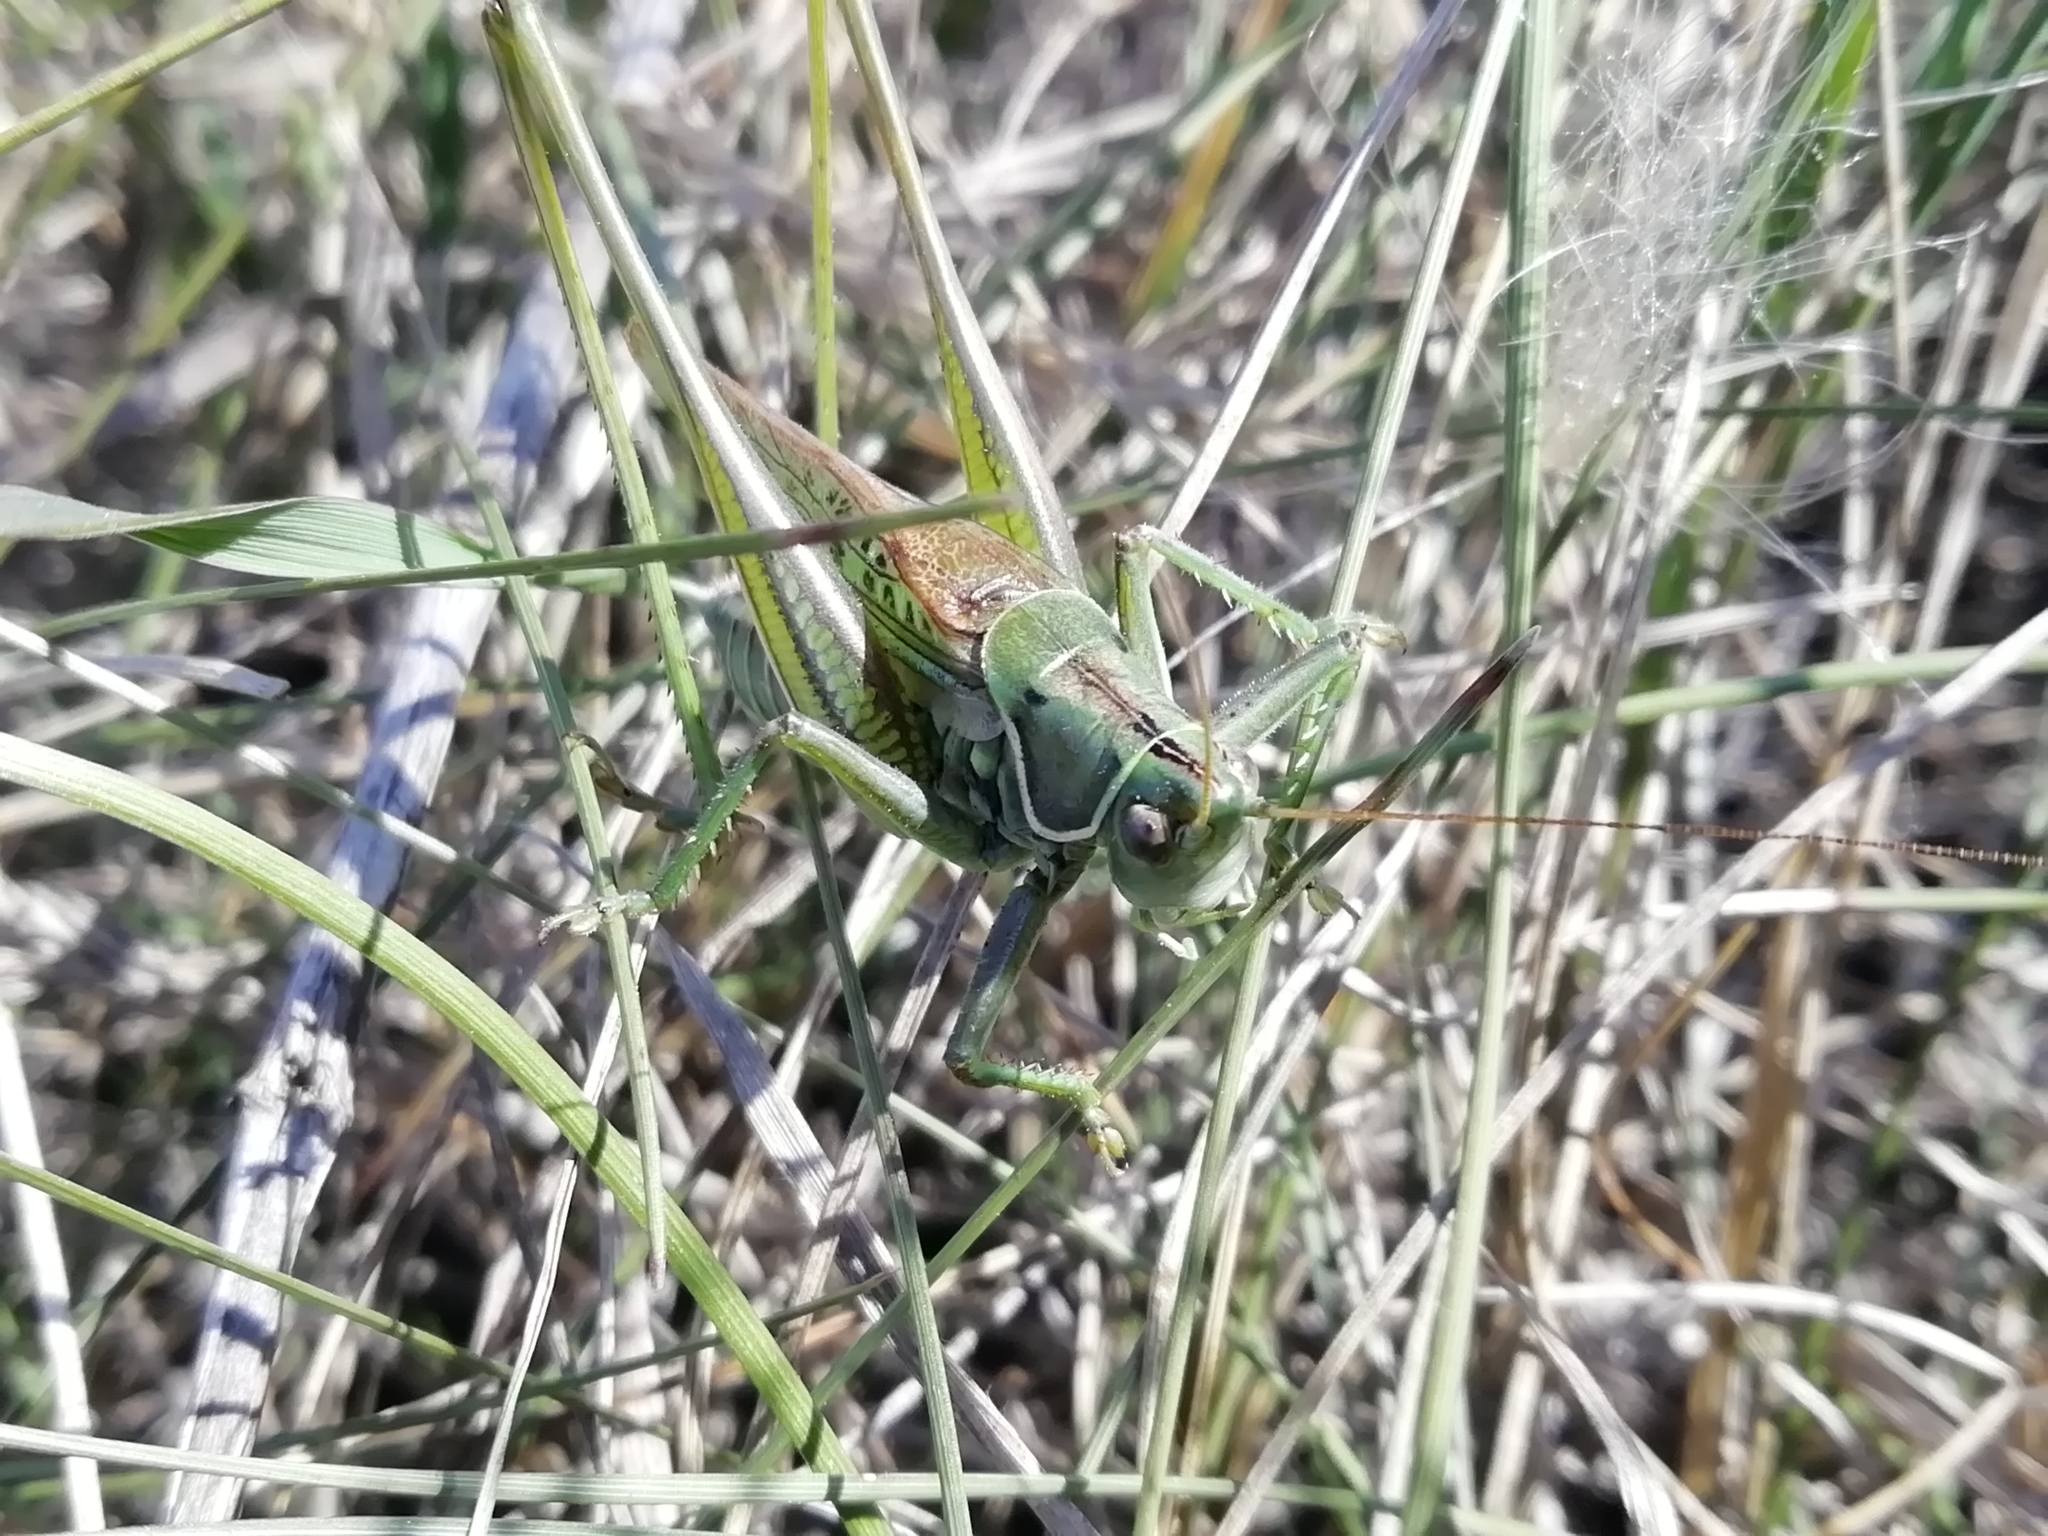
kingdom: Animalia
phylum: Arthropoda
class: Insecta
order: Orthoptera
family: Tettigoniidae
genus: Gampsocleis
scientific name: Gampsocleis glabra
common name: Heath bushcricket
